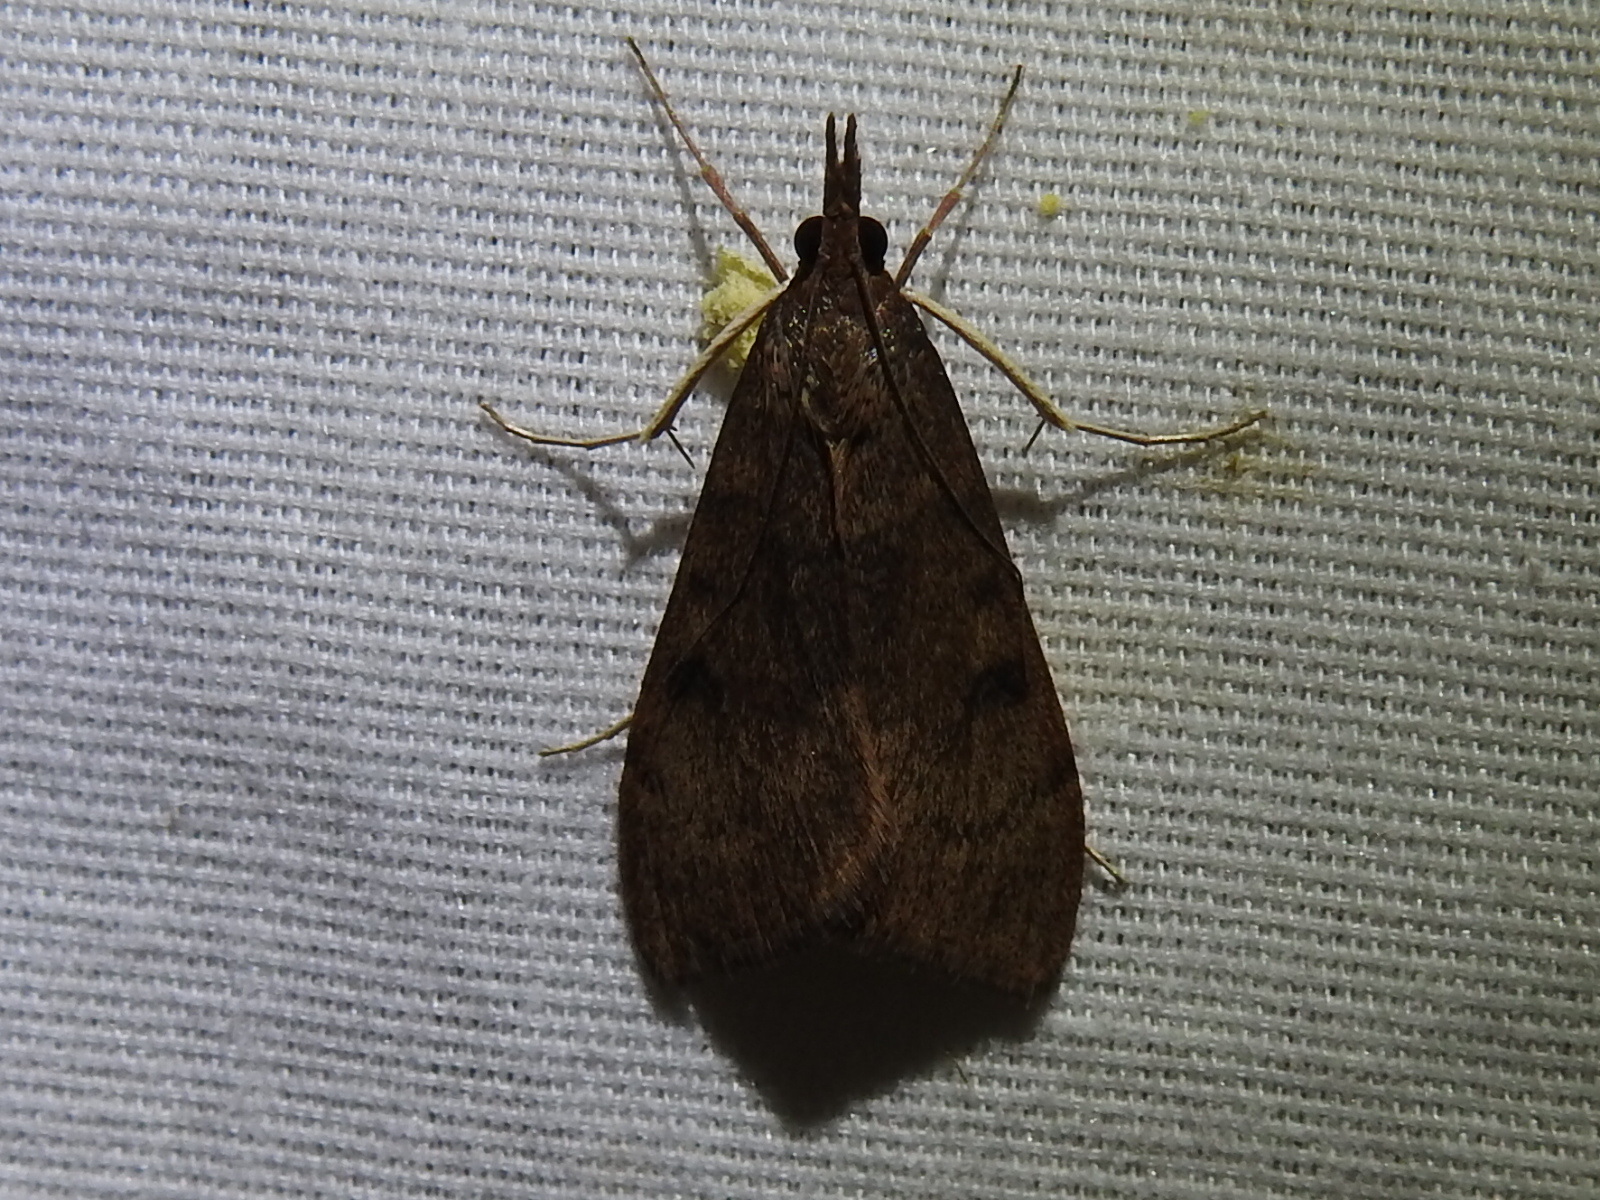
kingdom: Animalia
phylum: Arthropoda
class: Insecta
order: Lepidoptera
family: Crambidae
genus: Uresiphita
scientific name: Uresiphita reversalis
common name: Genista broom moth
